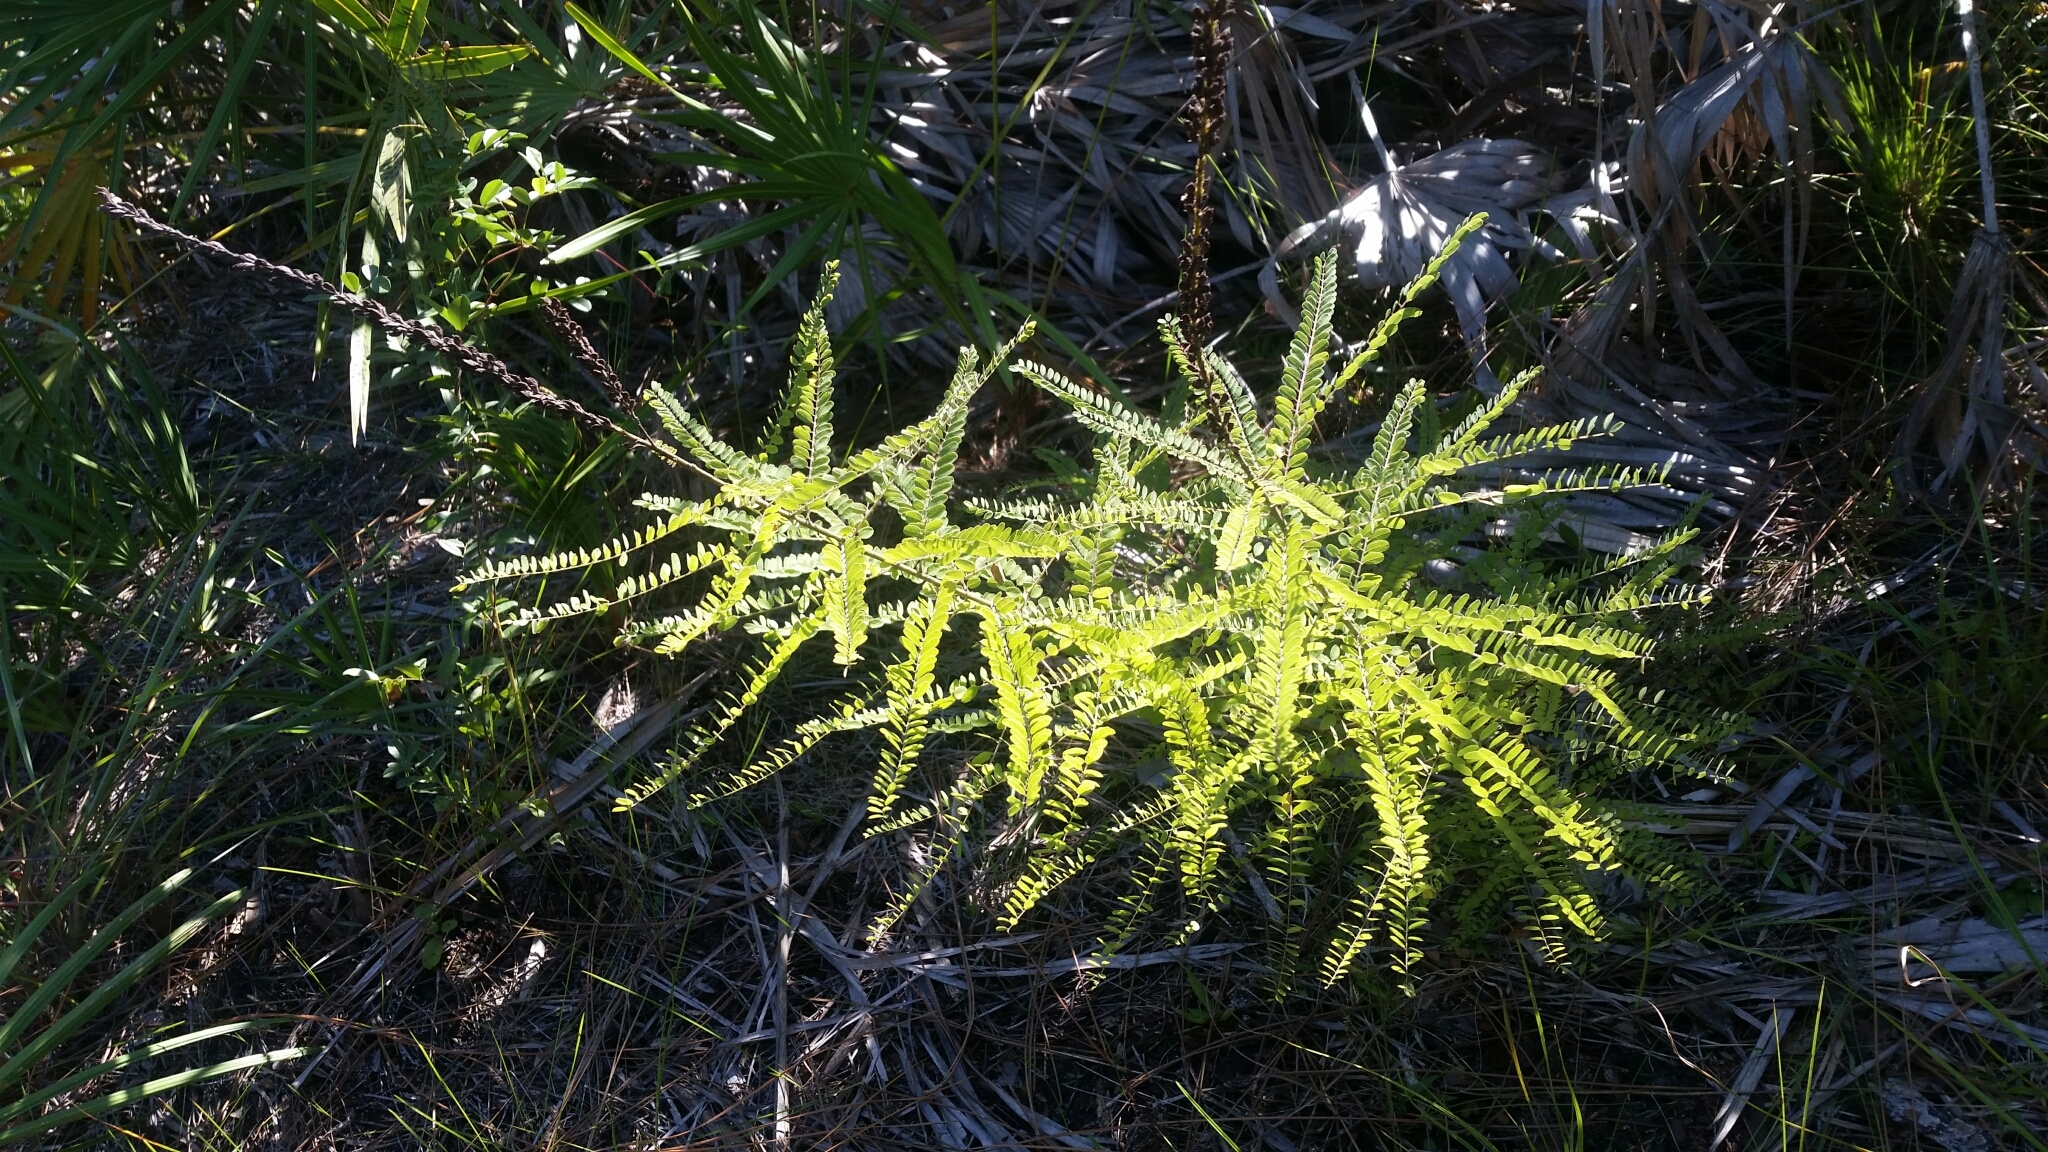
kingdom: Plantae
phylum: Tracheophyta
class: Magnoliopsida
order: Fabales
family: Fabaceae
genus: Amorpha
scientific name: Amorpha herbacea
